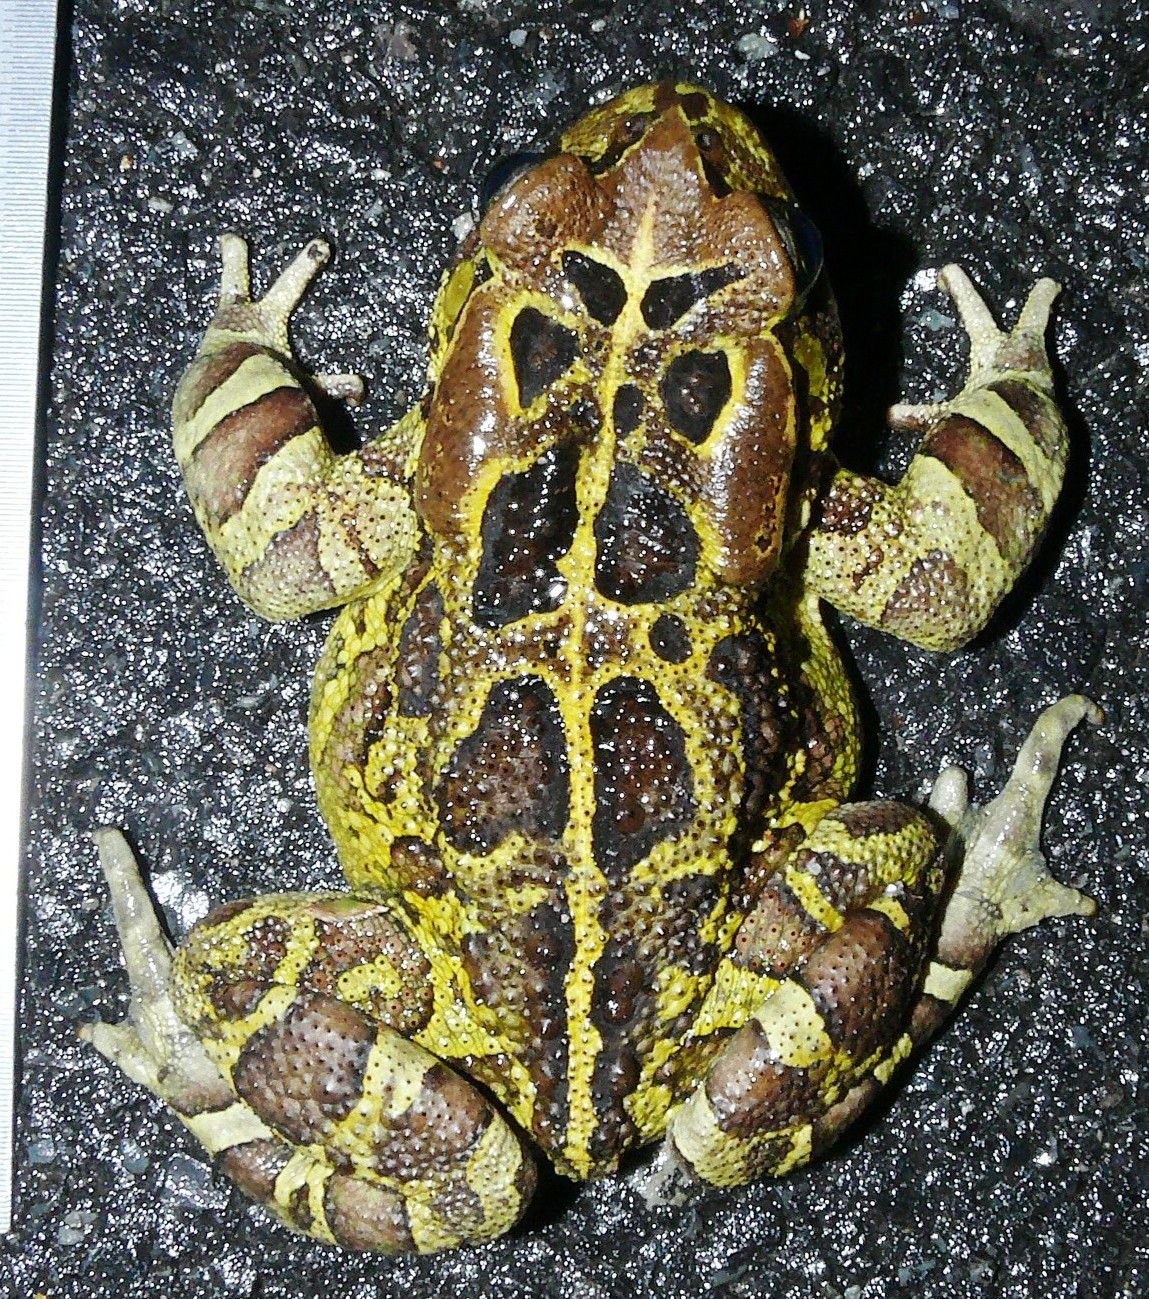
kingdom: Animalia
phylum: Chordata
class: Amphibia
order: Anura
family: Bufonidae
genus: Sclerophrys
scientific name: Sclerophrys pantherina
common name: Panther toad
